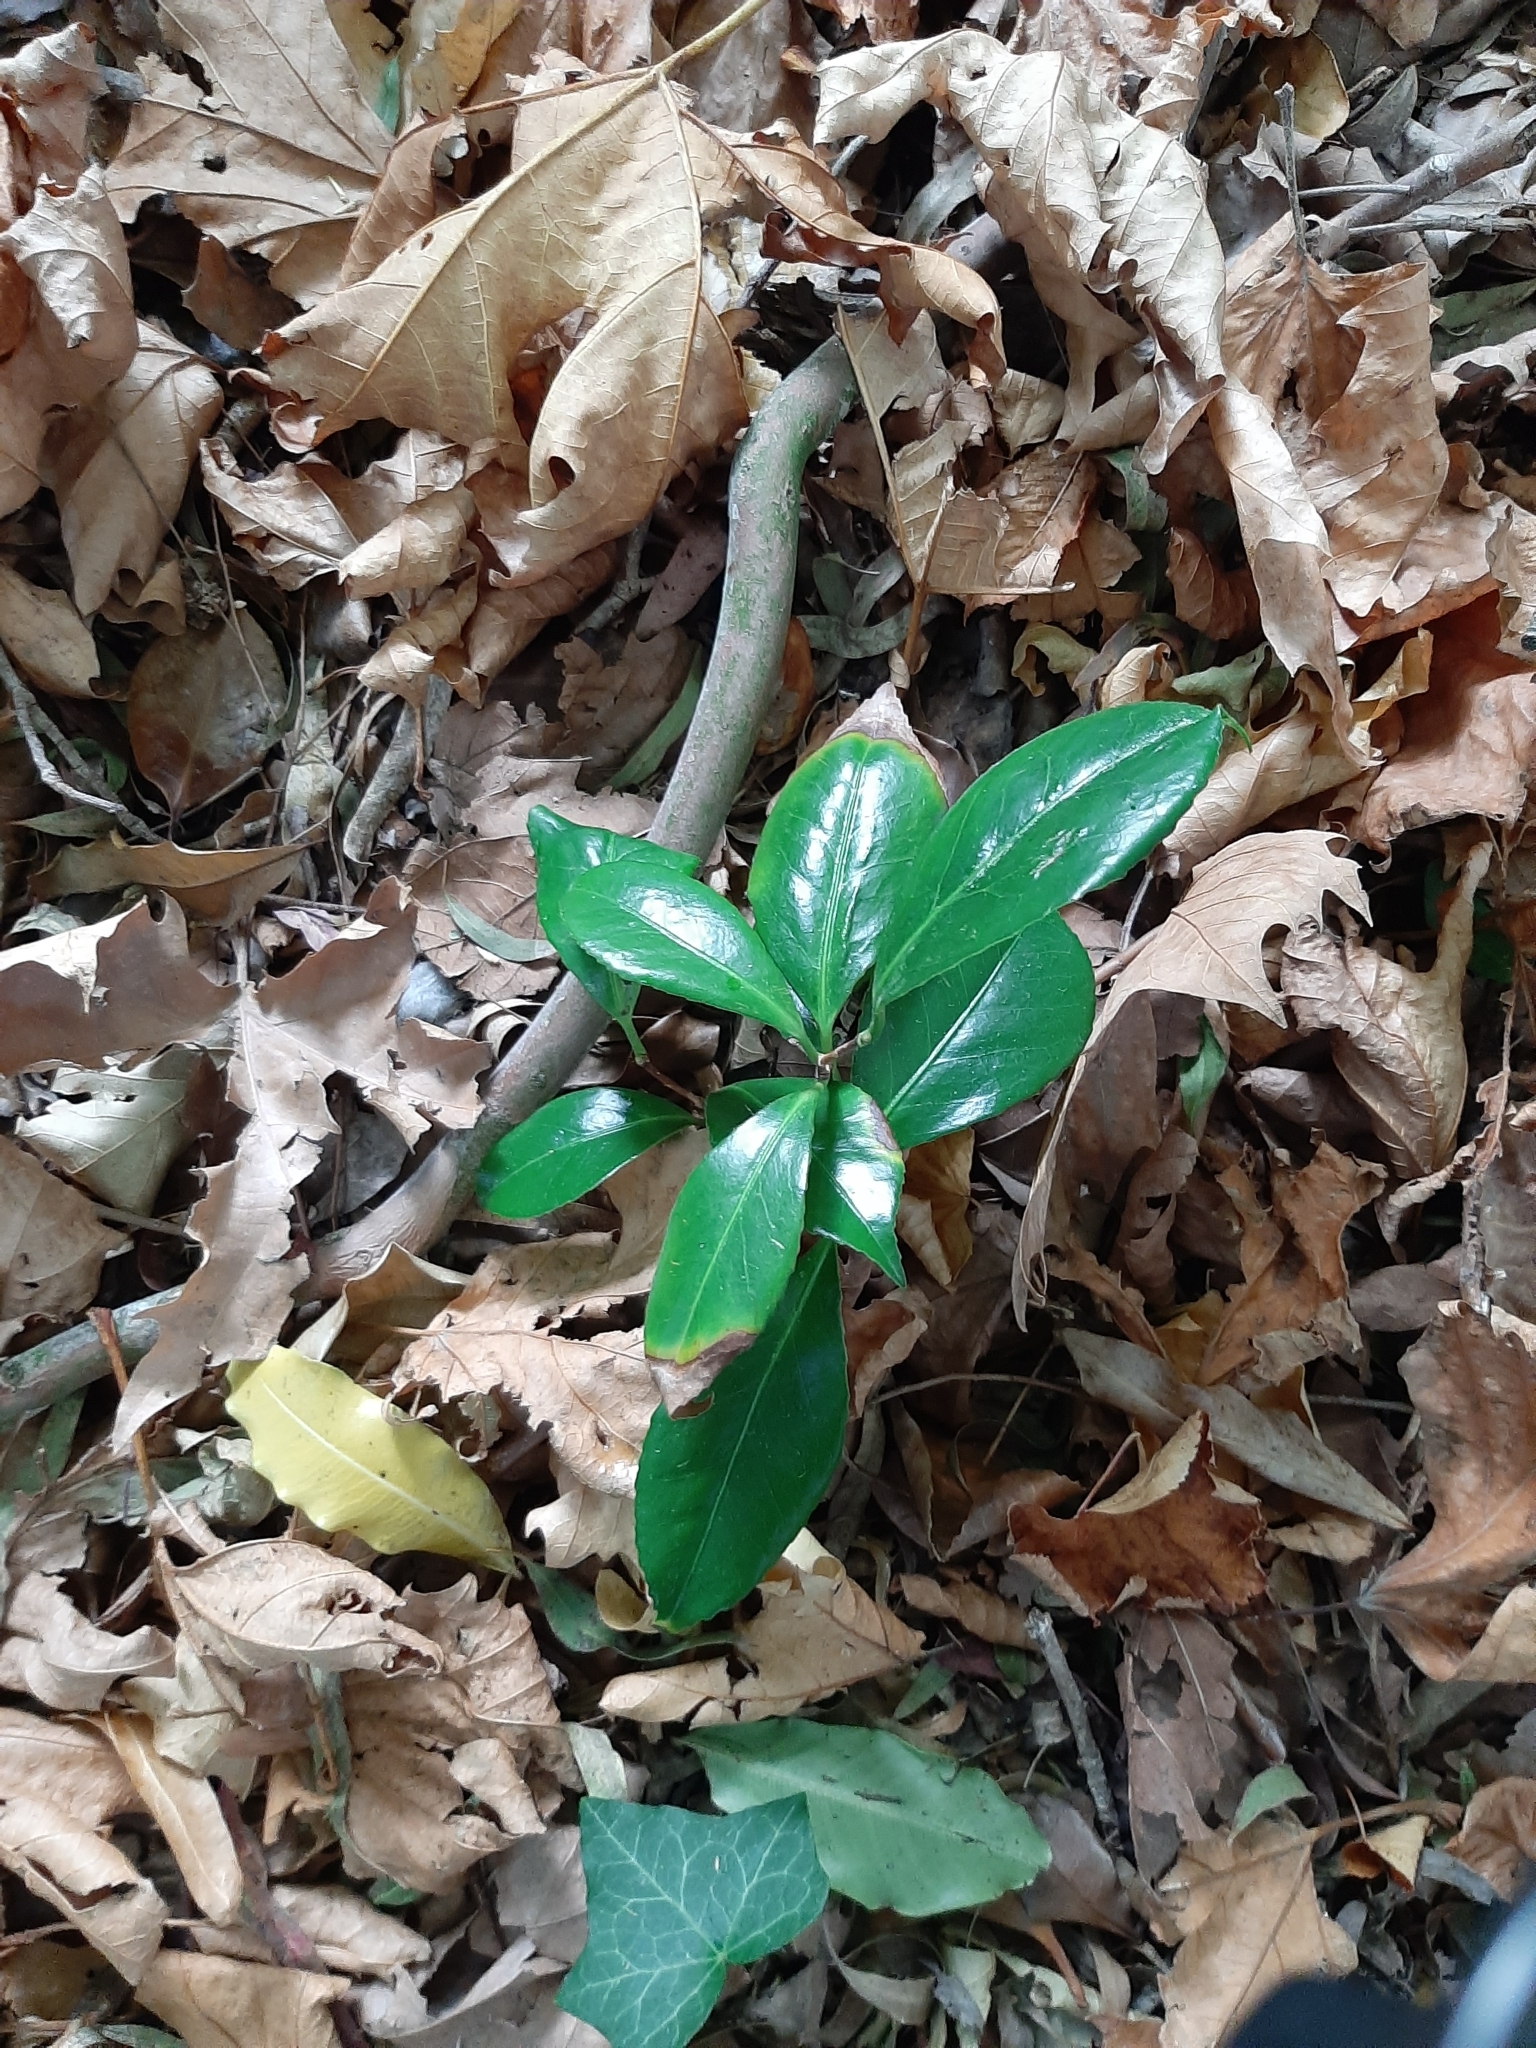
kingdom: Plantae
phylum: Tracheophyta
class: Magnoliopsida
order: Ericales
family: Theaceae
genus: Camellia
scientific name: Camellia japonica
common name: Camellia
